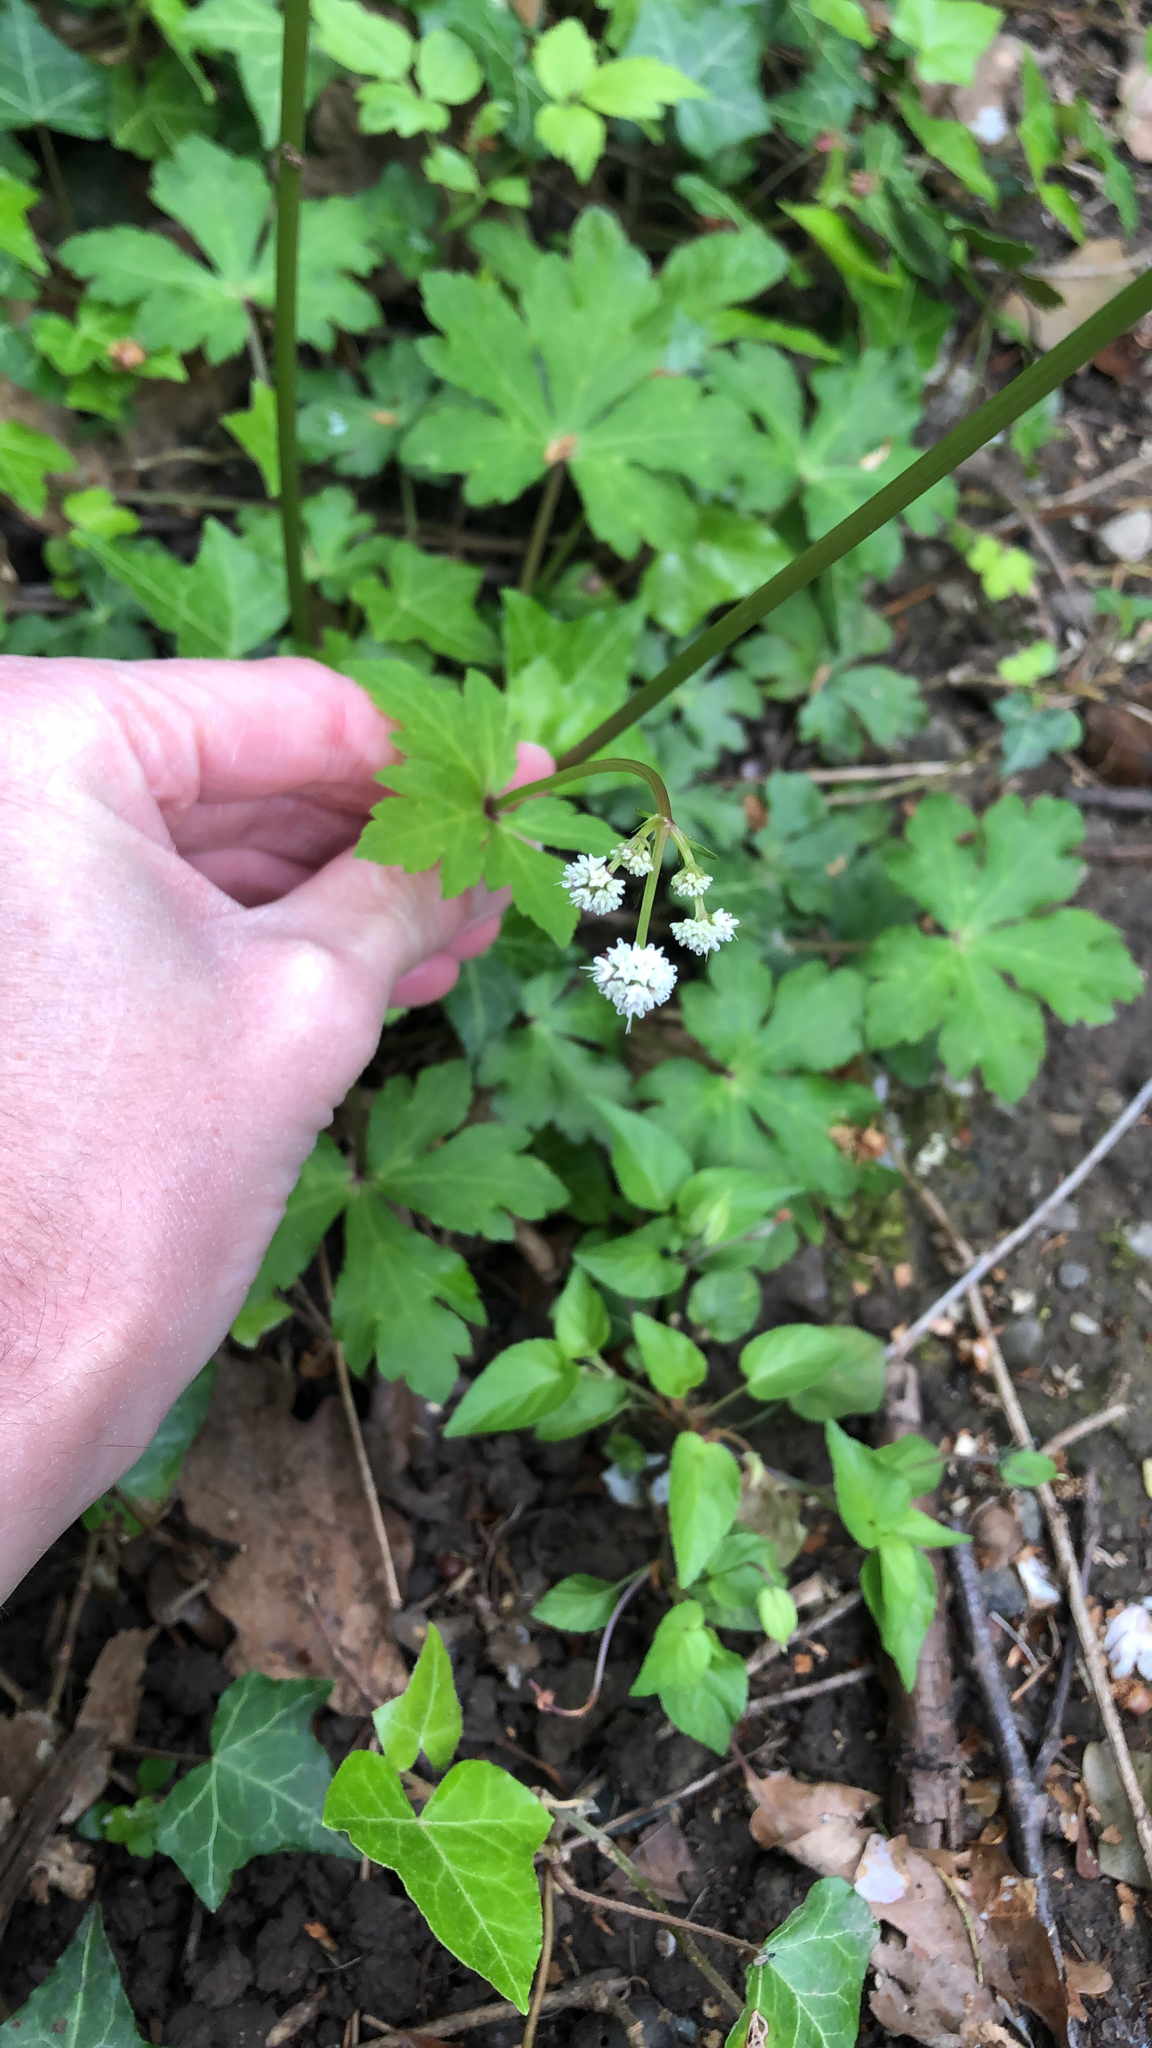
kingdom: Plantae
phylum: Tracheophyta
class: Magnoliopsida
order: Apiales
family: Apiaceae
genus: Sanicula
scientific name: Sanicula europaea
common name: Sanicle
